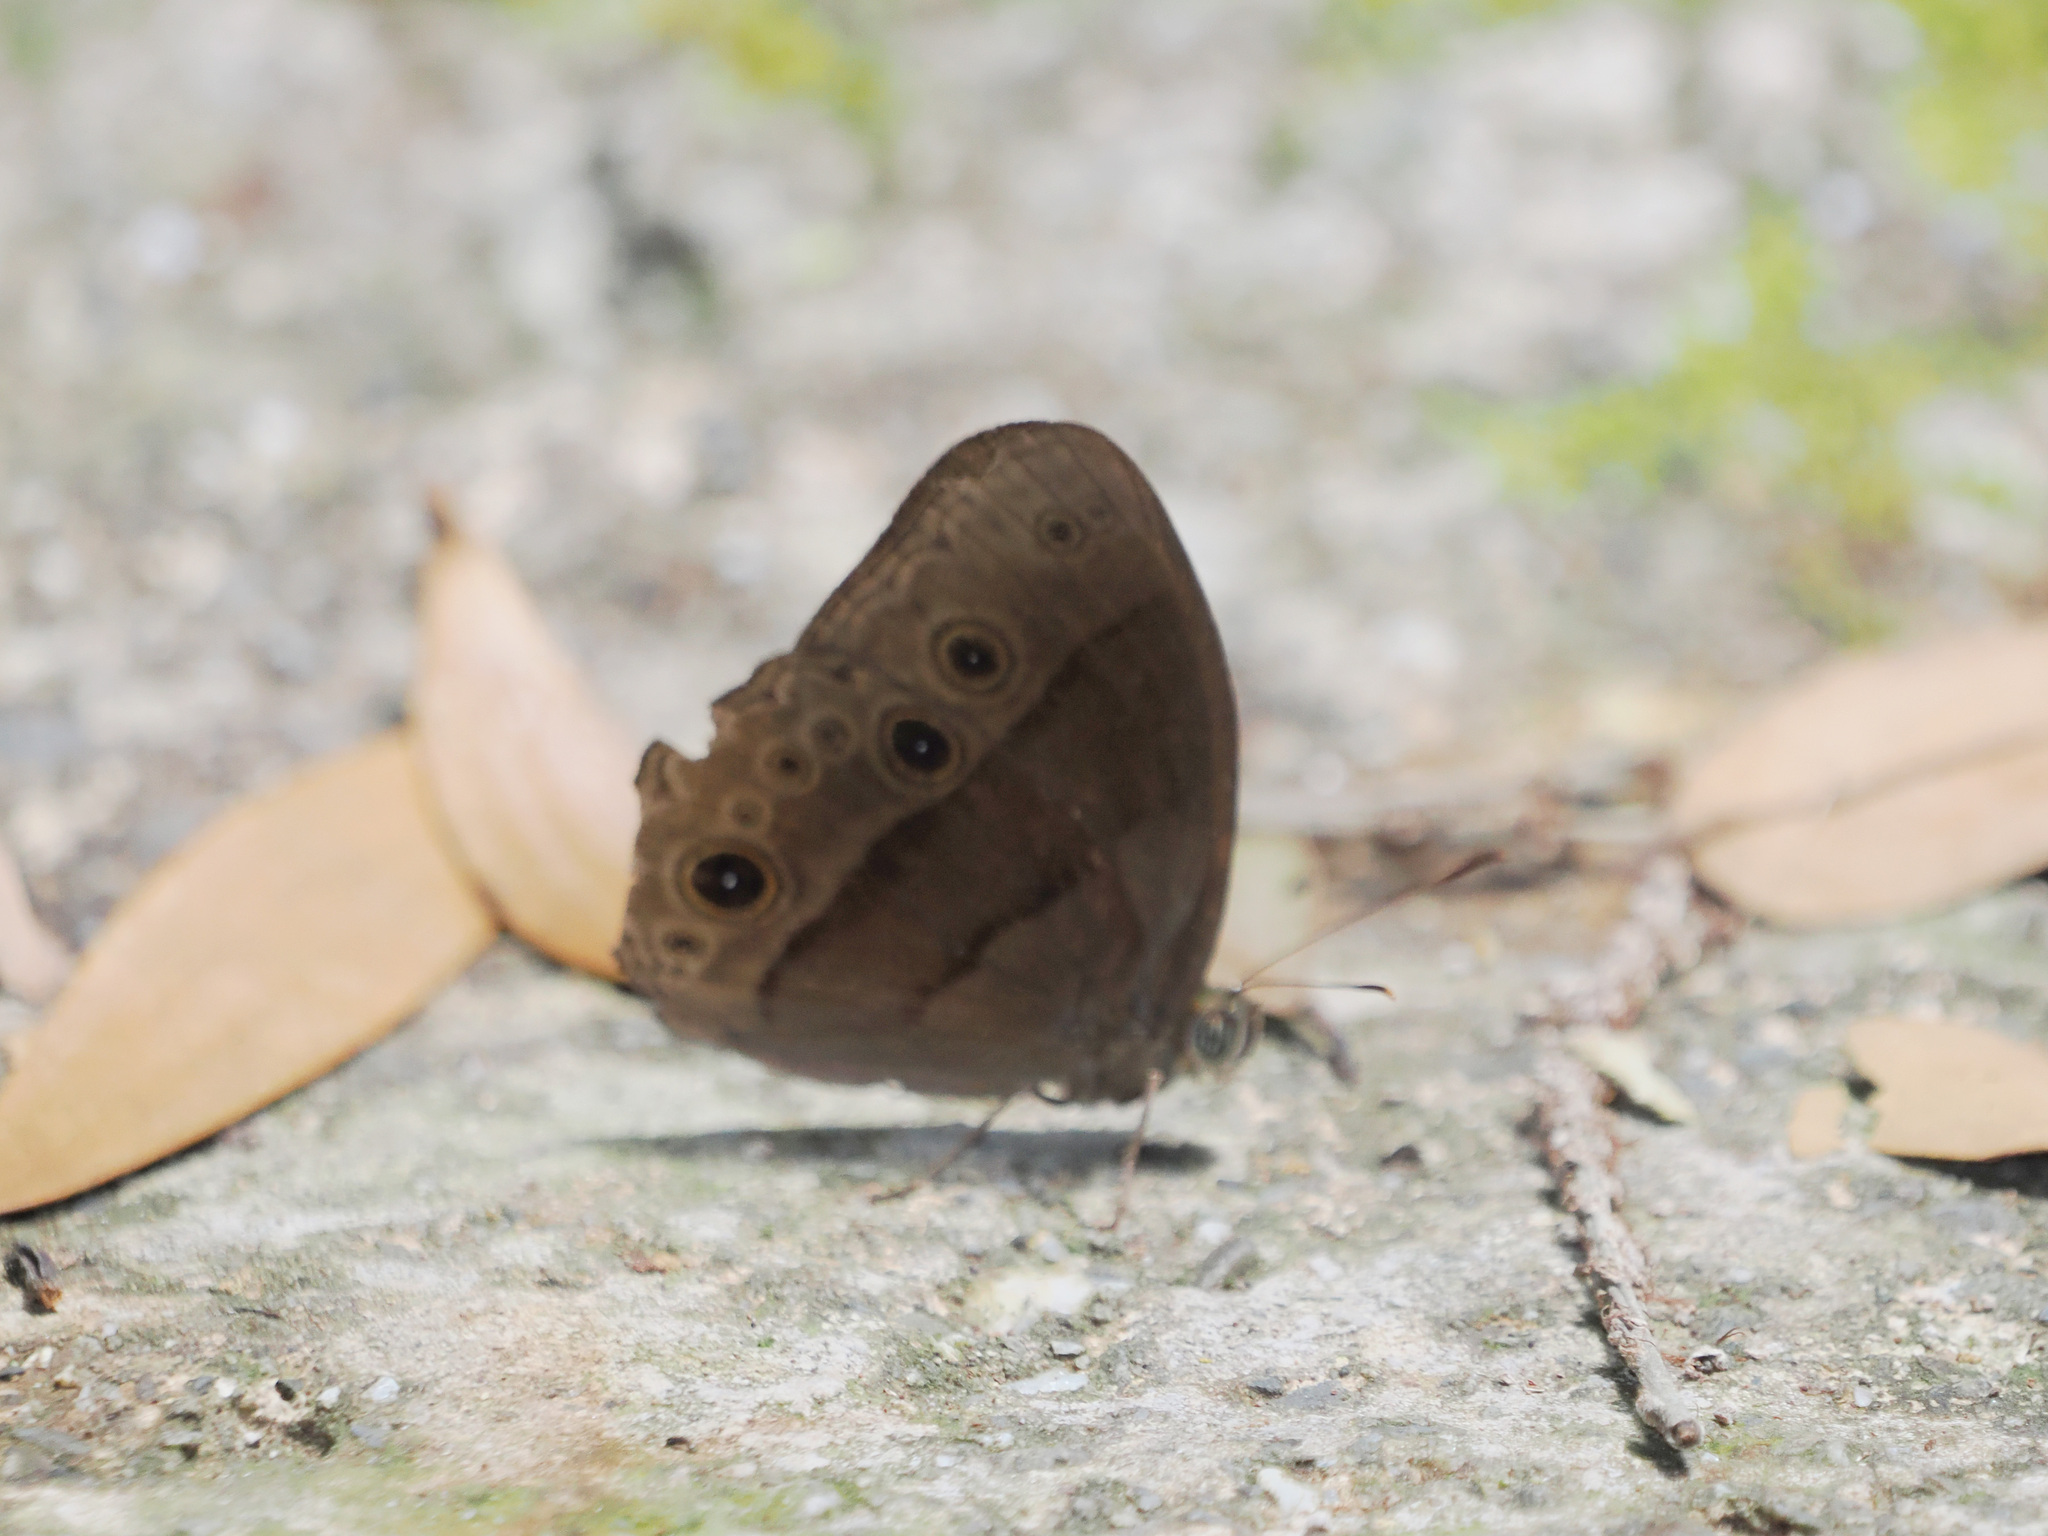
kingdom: Animalia
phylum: Arthropoda
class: Insecta
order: Lepidoptera
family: Nymphalidae
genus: Mycalesis
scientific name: Mycalesis amoena
